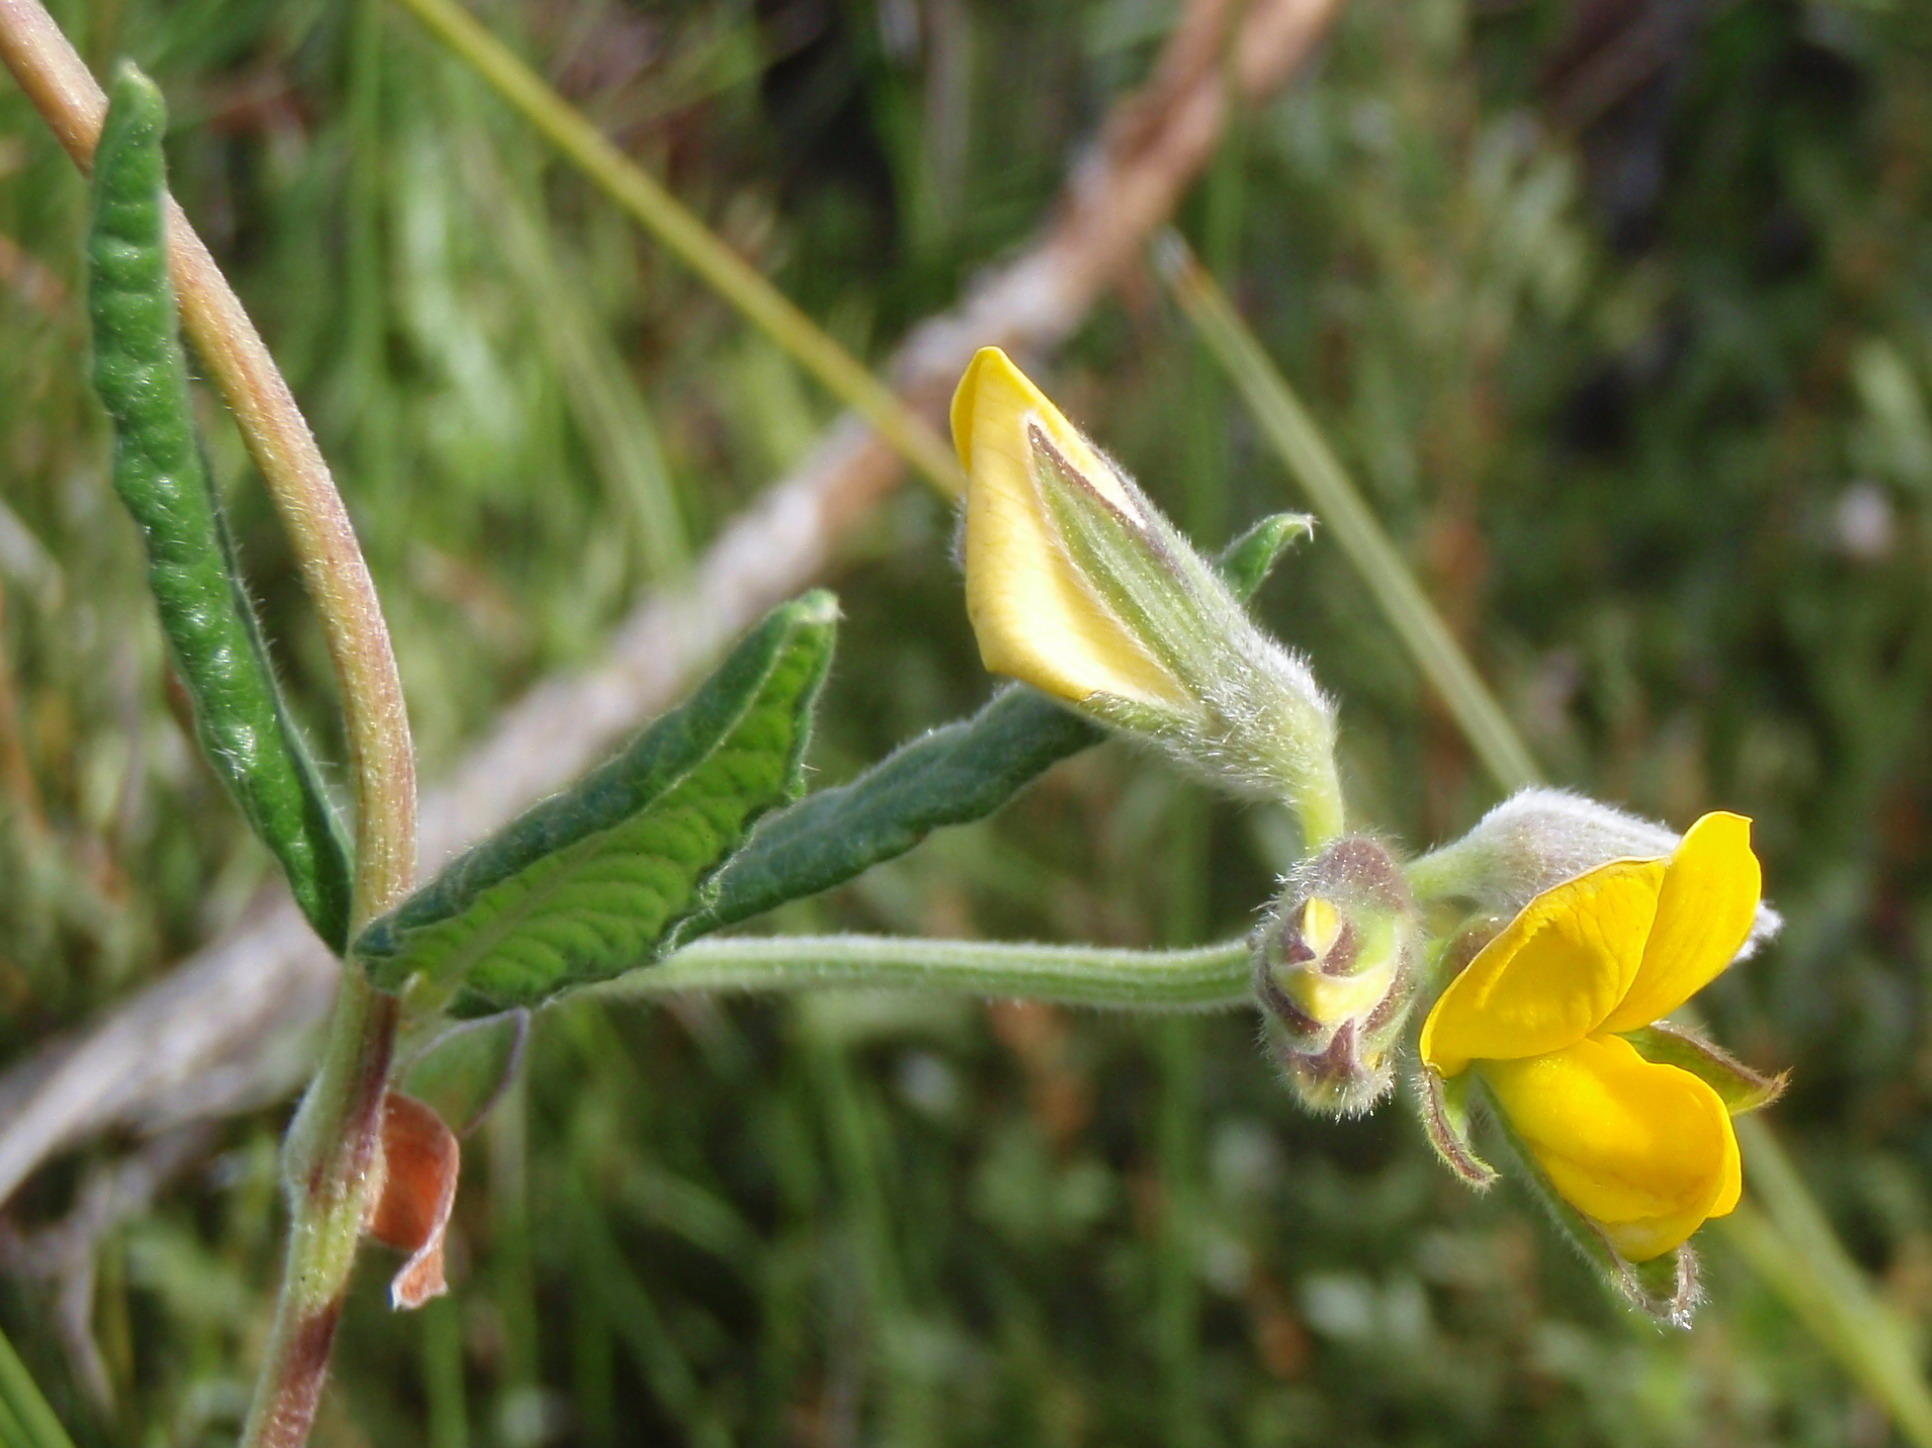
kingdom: Plantae
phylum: Tracheophyta
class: Magnoliopsida
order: Fabales
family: Fabaceae
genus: Rhynchosia
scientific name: Rhynchosia chrysoscias
